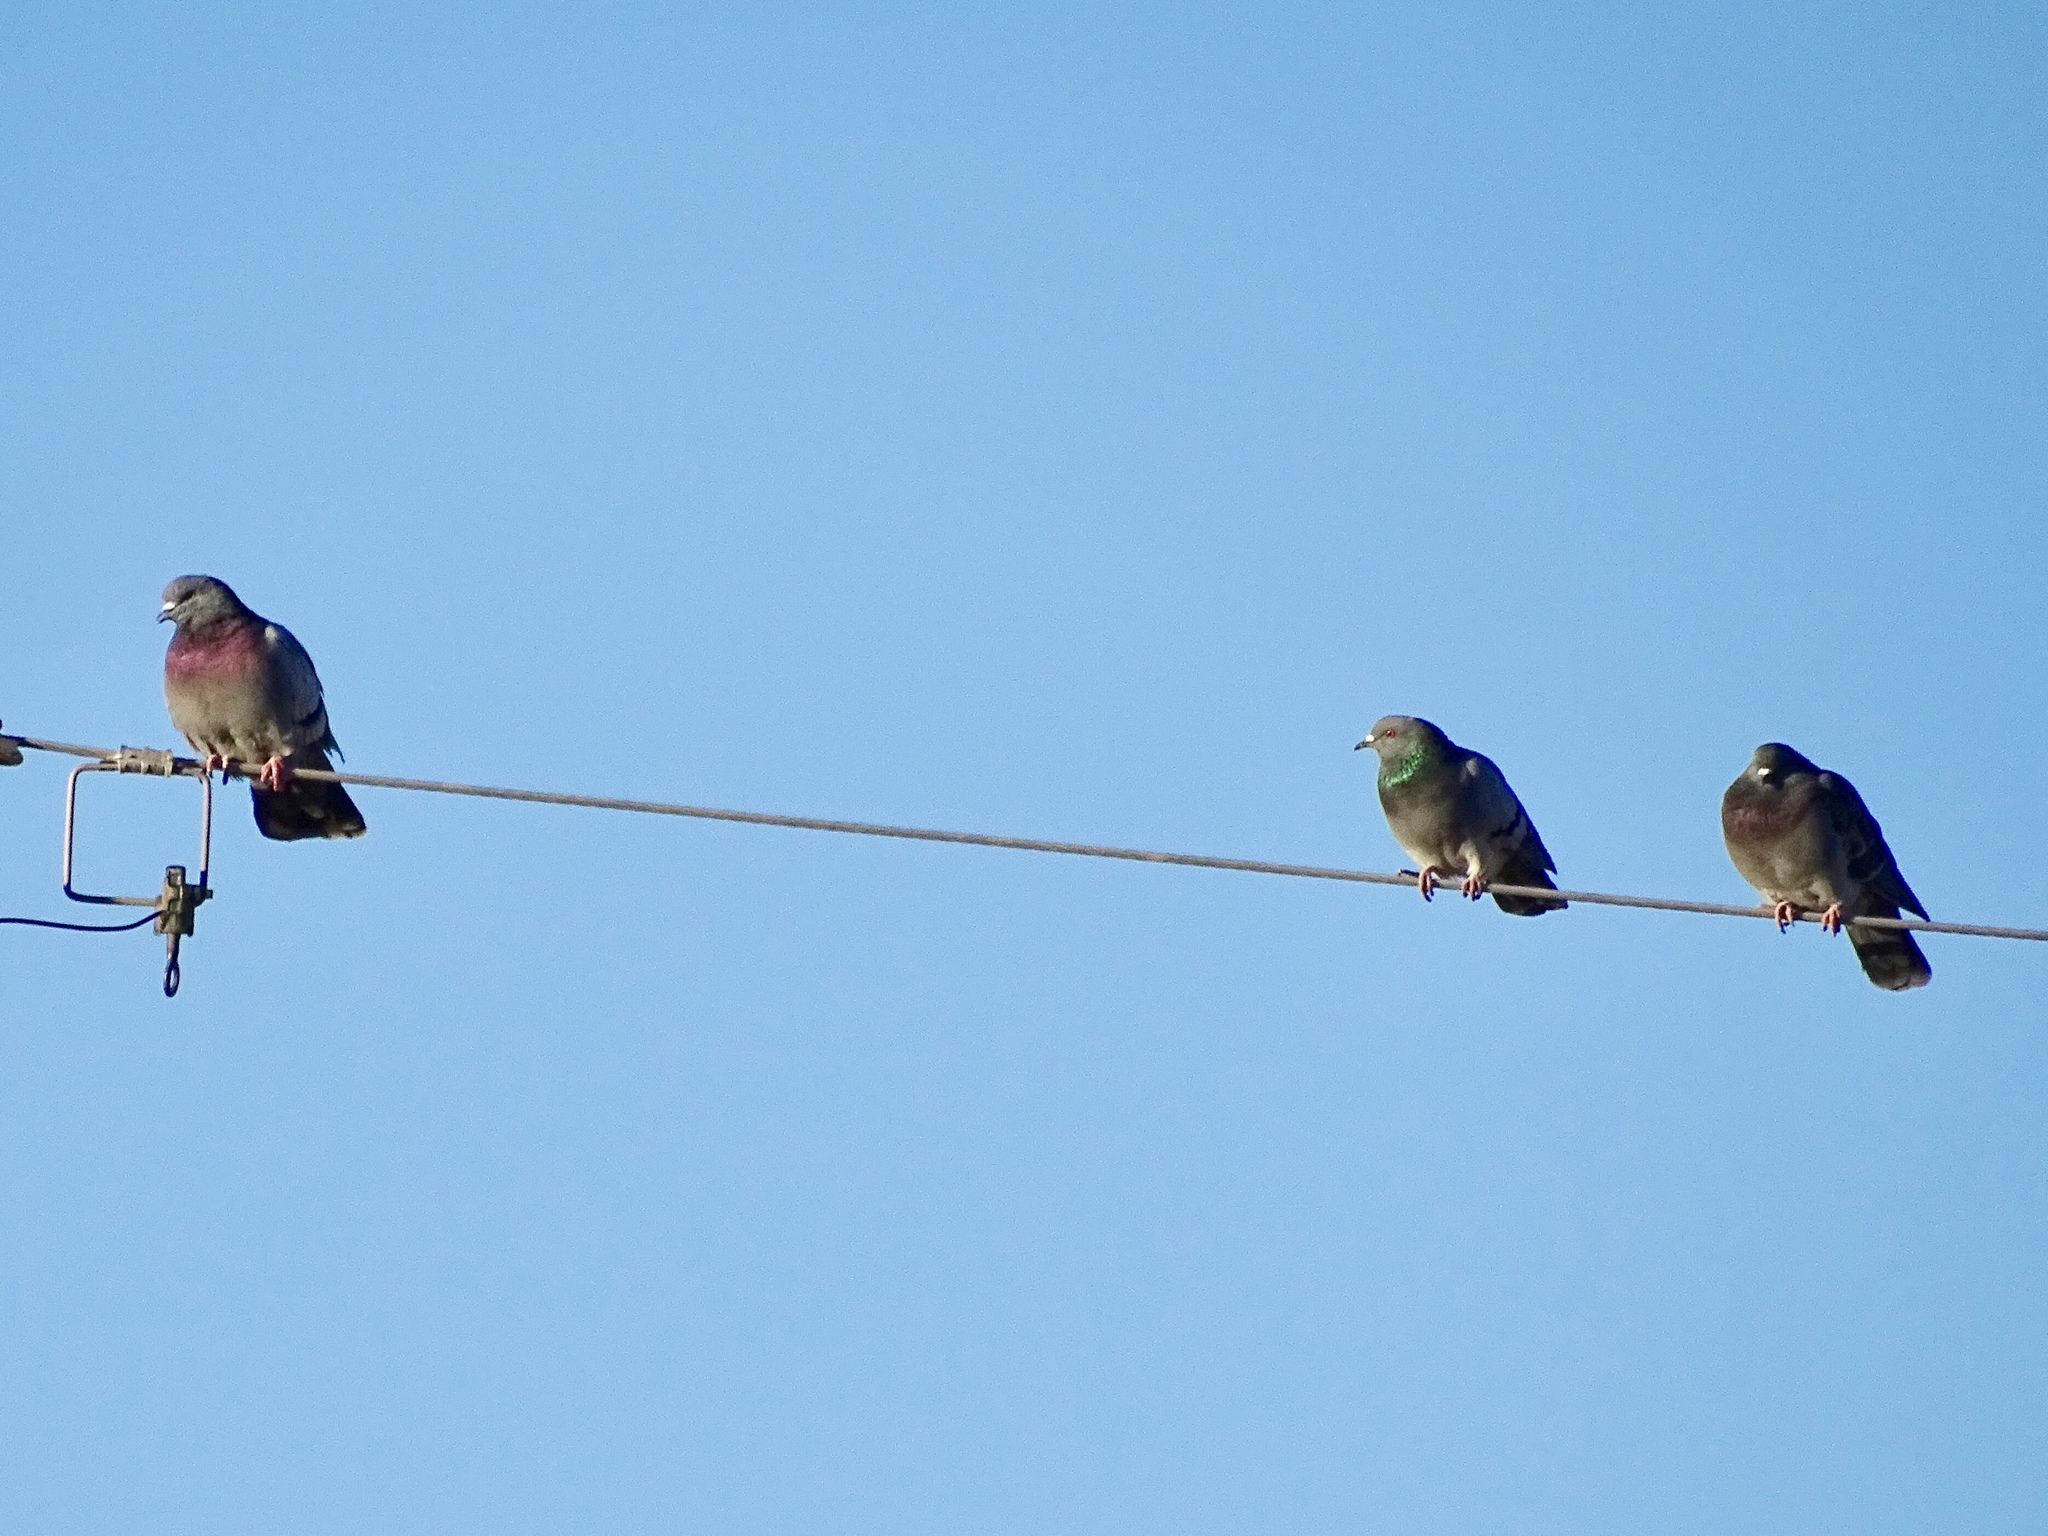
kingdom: Animalia
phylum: Chordata
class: Aves
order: Columbiformes
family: Columbidae
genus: Columba
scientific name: Columba livia
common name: Rock pigeon
